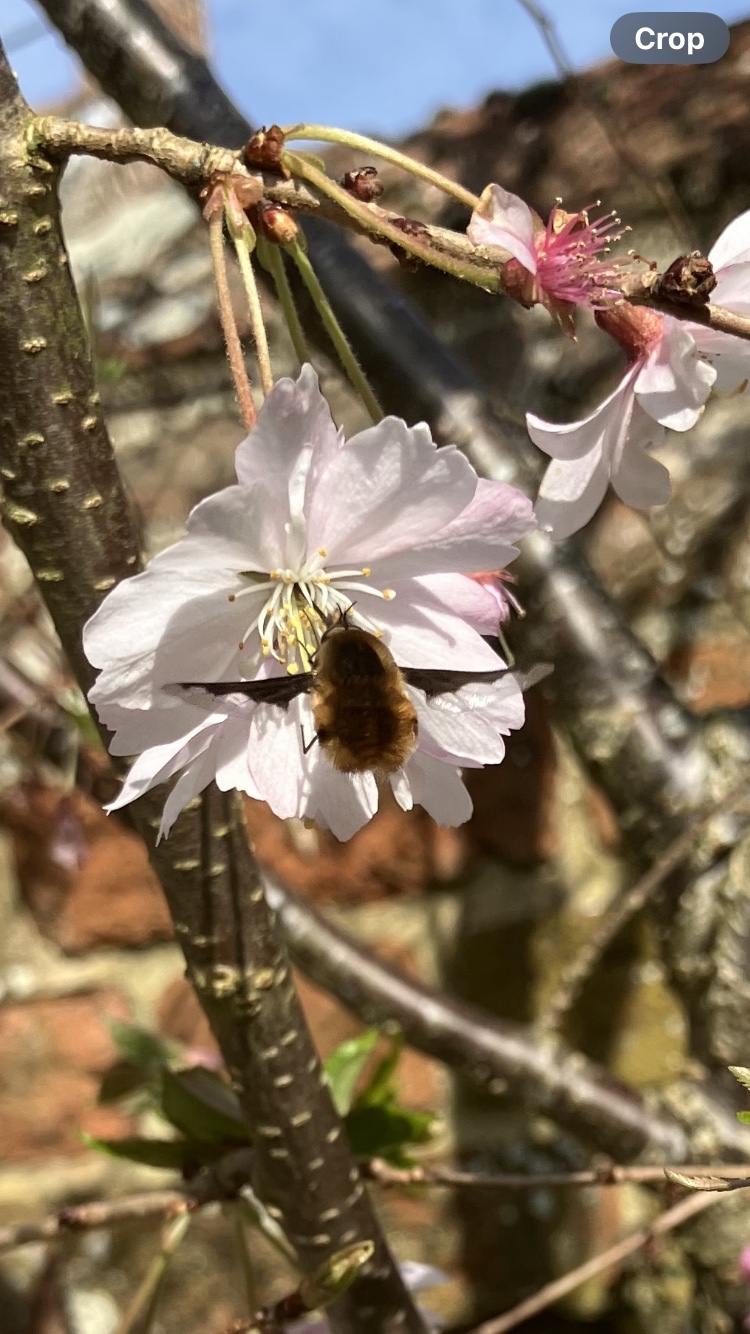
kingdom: Animalia
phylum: Arthropoda
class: Insecta
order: Diptera
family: Bombyliidae
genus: Bombylius
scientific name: Bombylius major
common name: Bee fly
